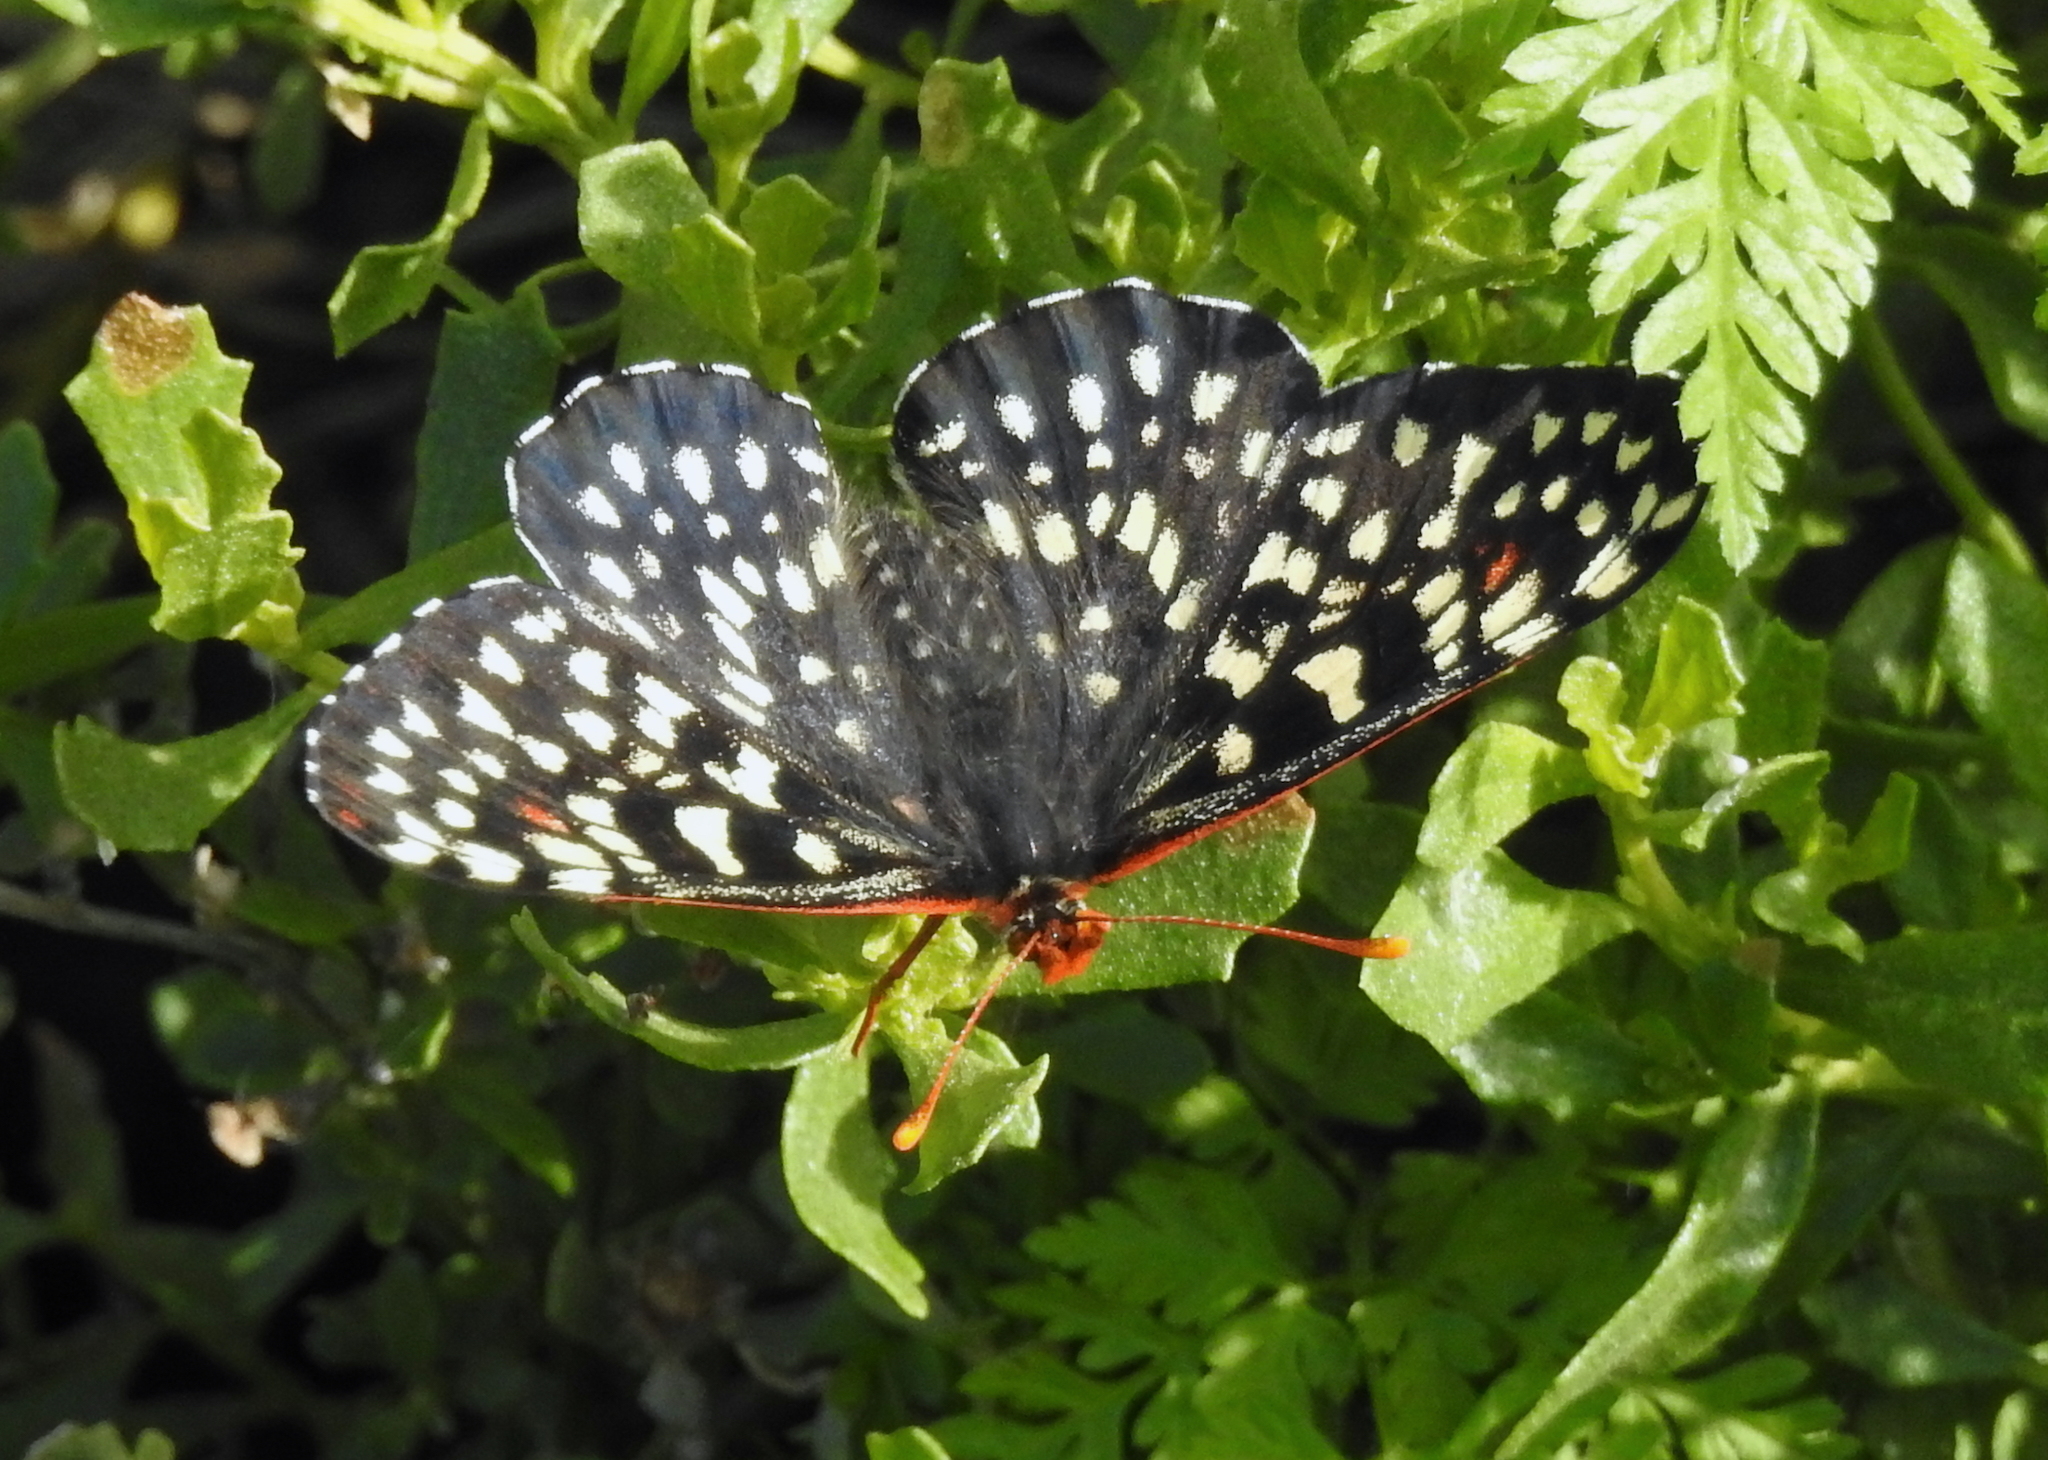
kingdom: Animalia
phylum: Arthropoda
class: Insecta
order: Lepidoptera
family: Nymphalidae
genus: Occidryas
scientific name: Occidryas chalcedona
